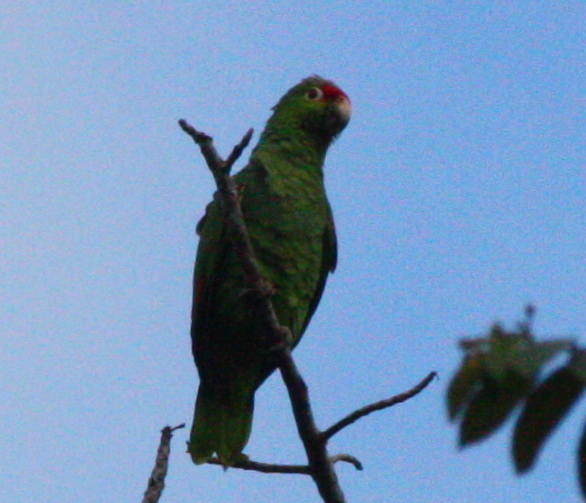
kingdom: Animalia
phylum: Chordata
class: Aves
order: Psittaciformes
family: Psittacidae
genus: Amazona
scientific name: Amazona autumnalis
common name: Red-lored amazon
